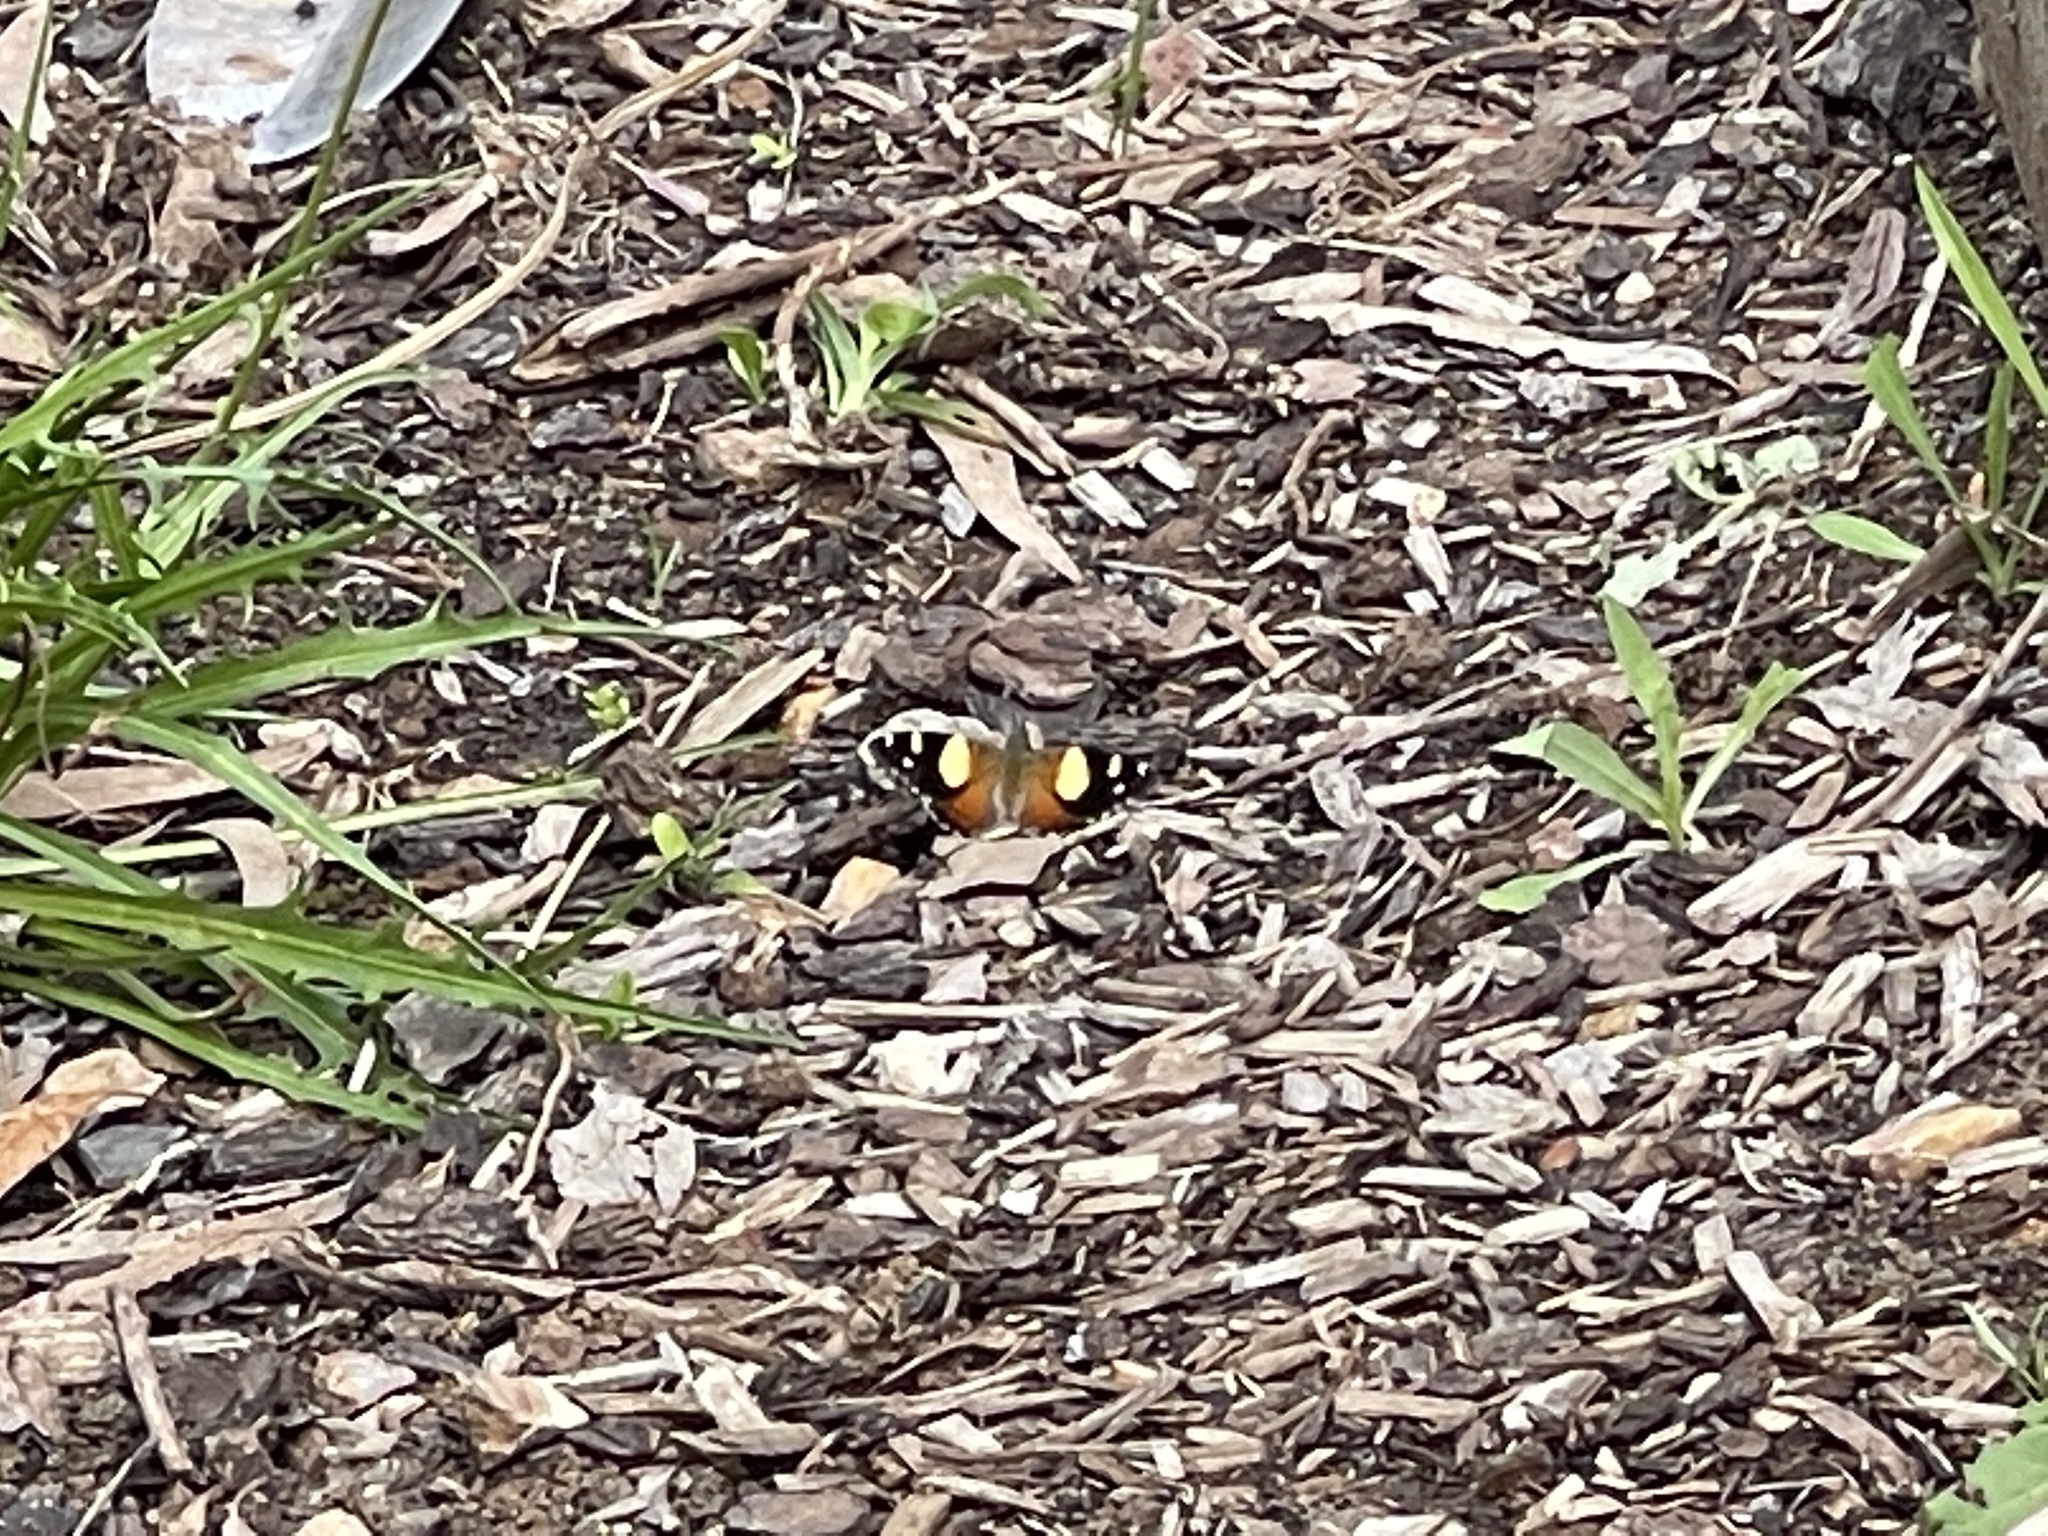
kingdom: Animalia
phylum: Arthropoda
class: Insecta
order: Lepidoptera
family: Nymphalidae
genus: Vanessa
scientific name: Vanessa itea
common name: Yellow admiral
